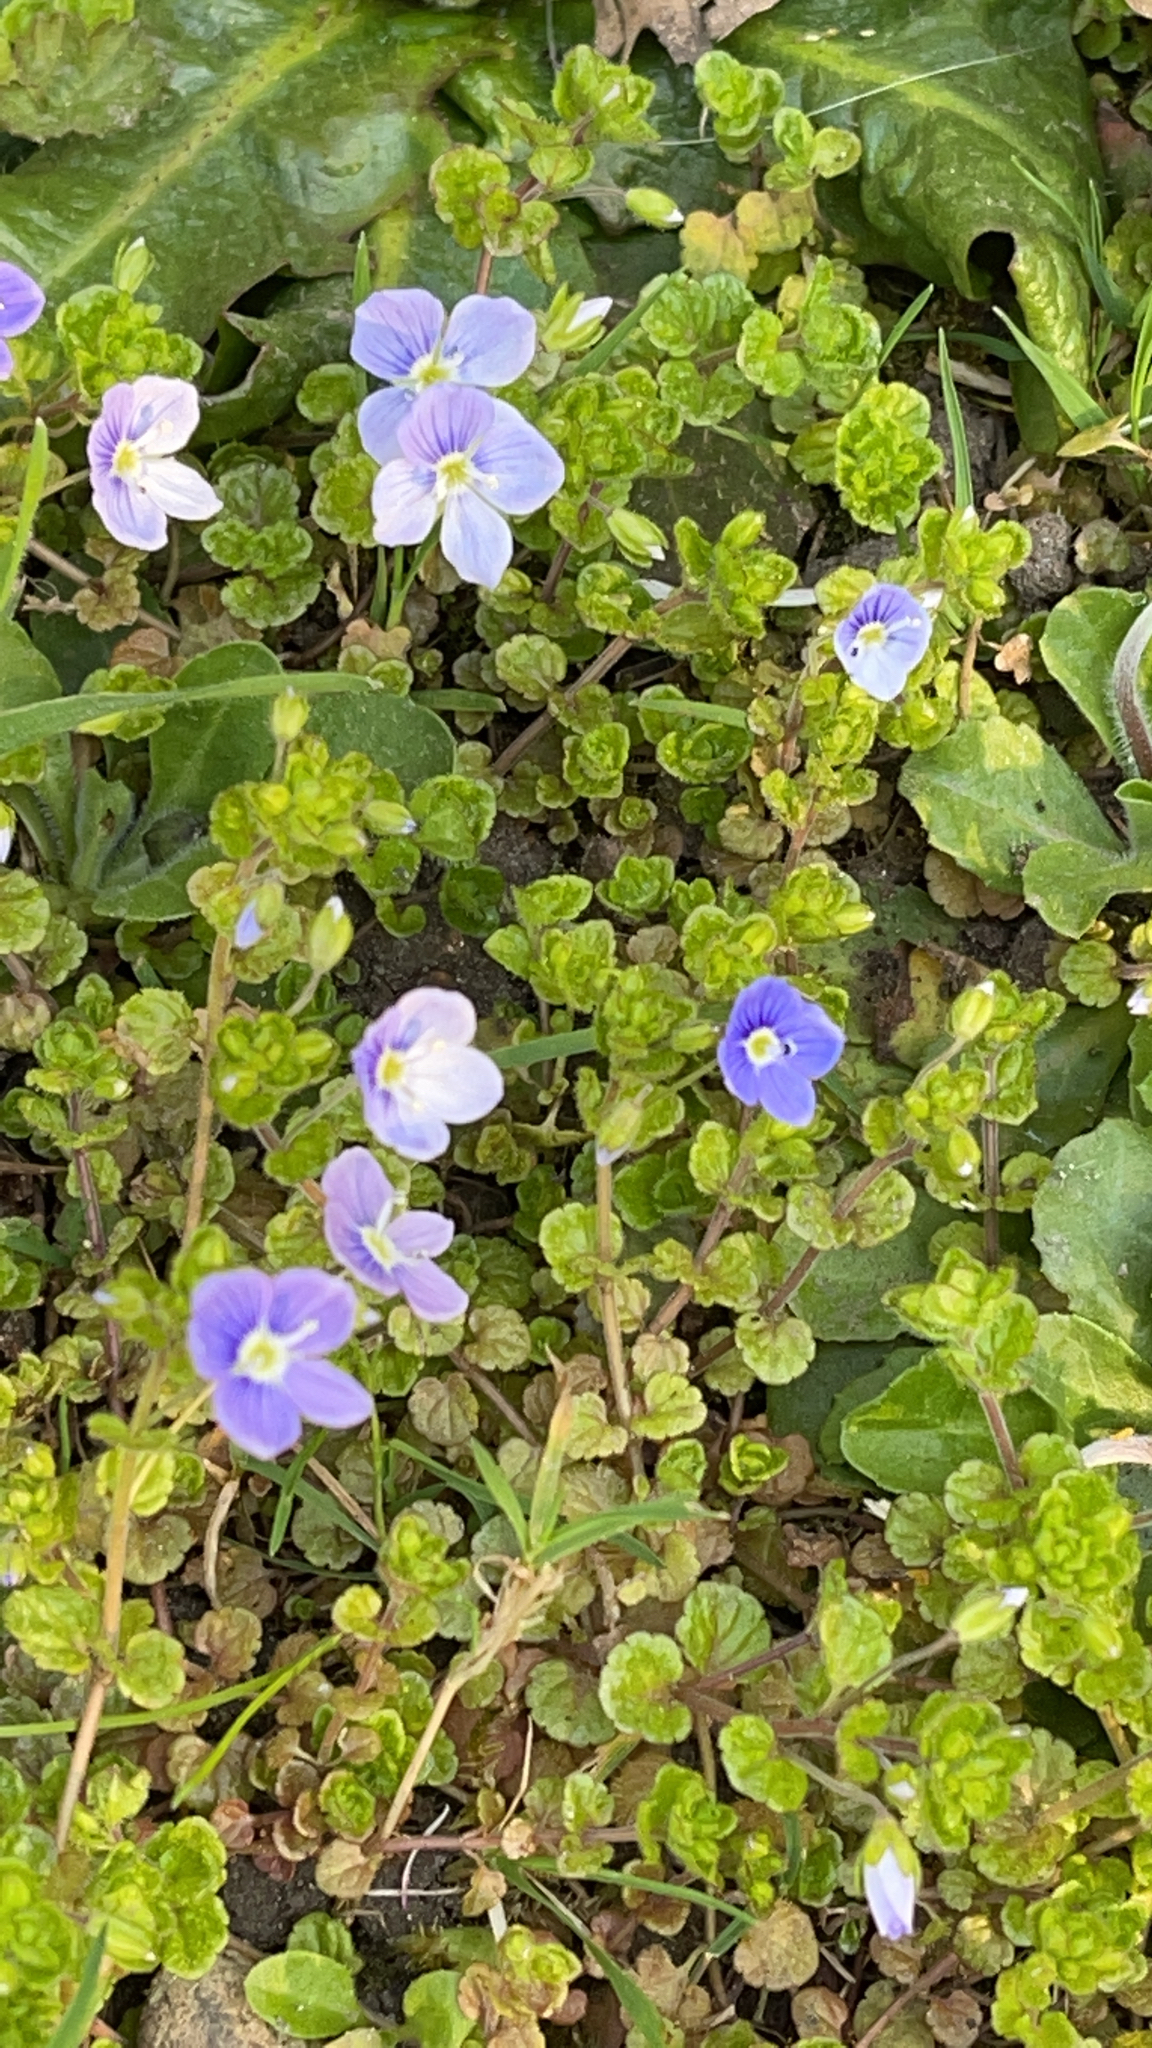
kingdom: Plantae
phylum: Tracheophyta
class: Magnoliopsida
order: Lamiales
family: Plantaginaceae
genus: Veronica
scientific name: Veronica filiformis
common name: Slender speedwell
